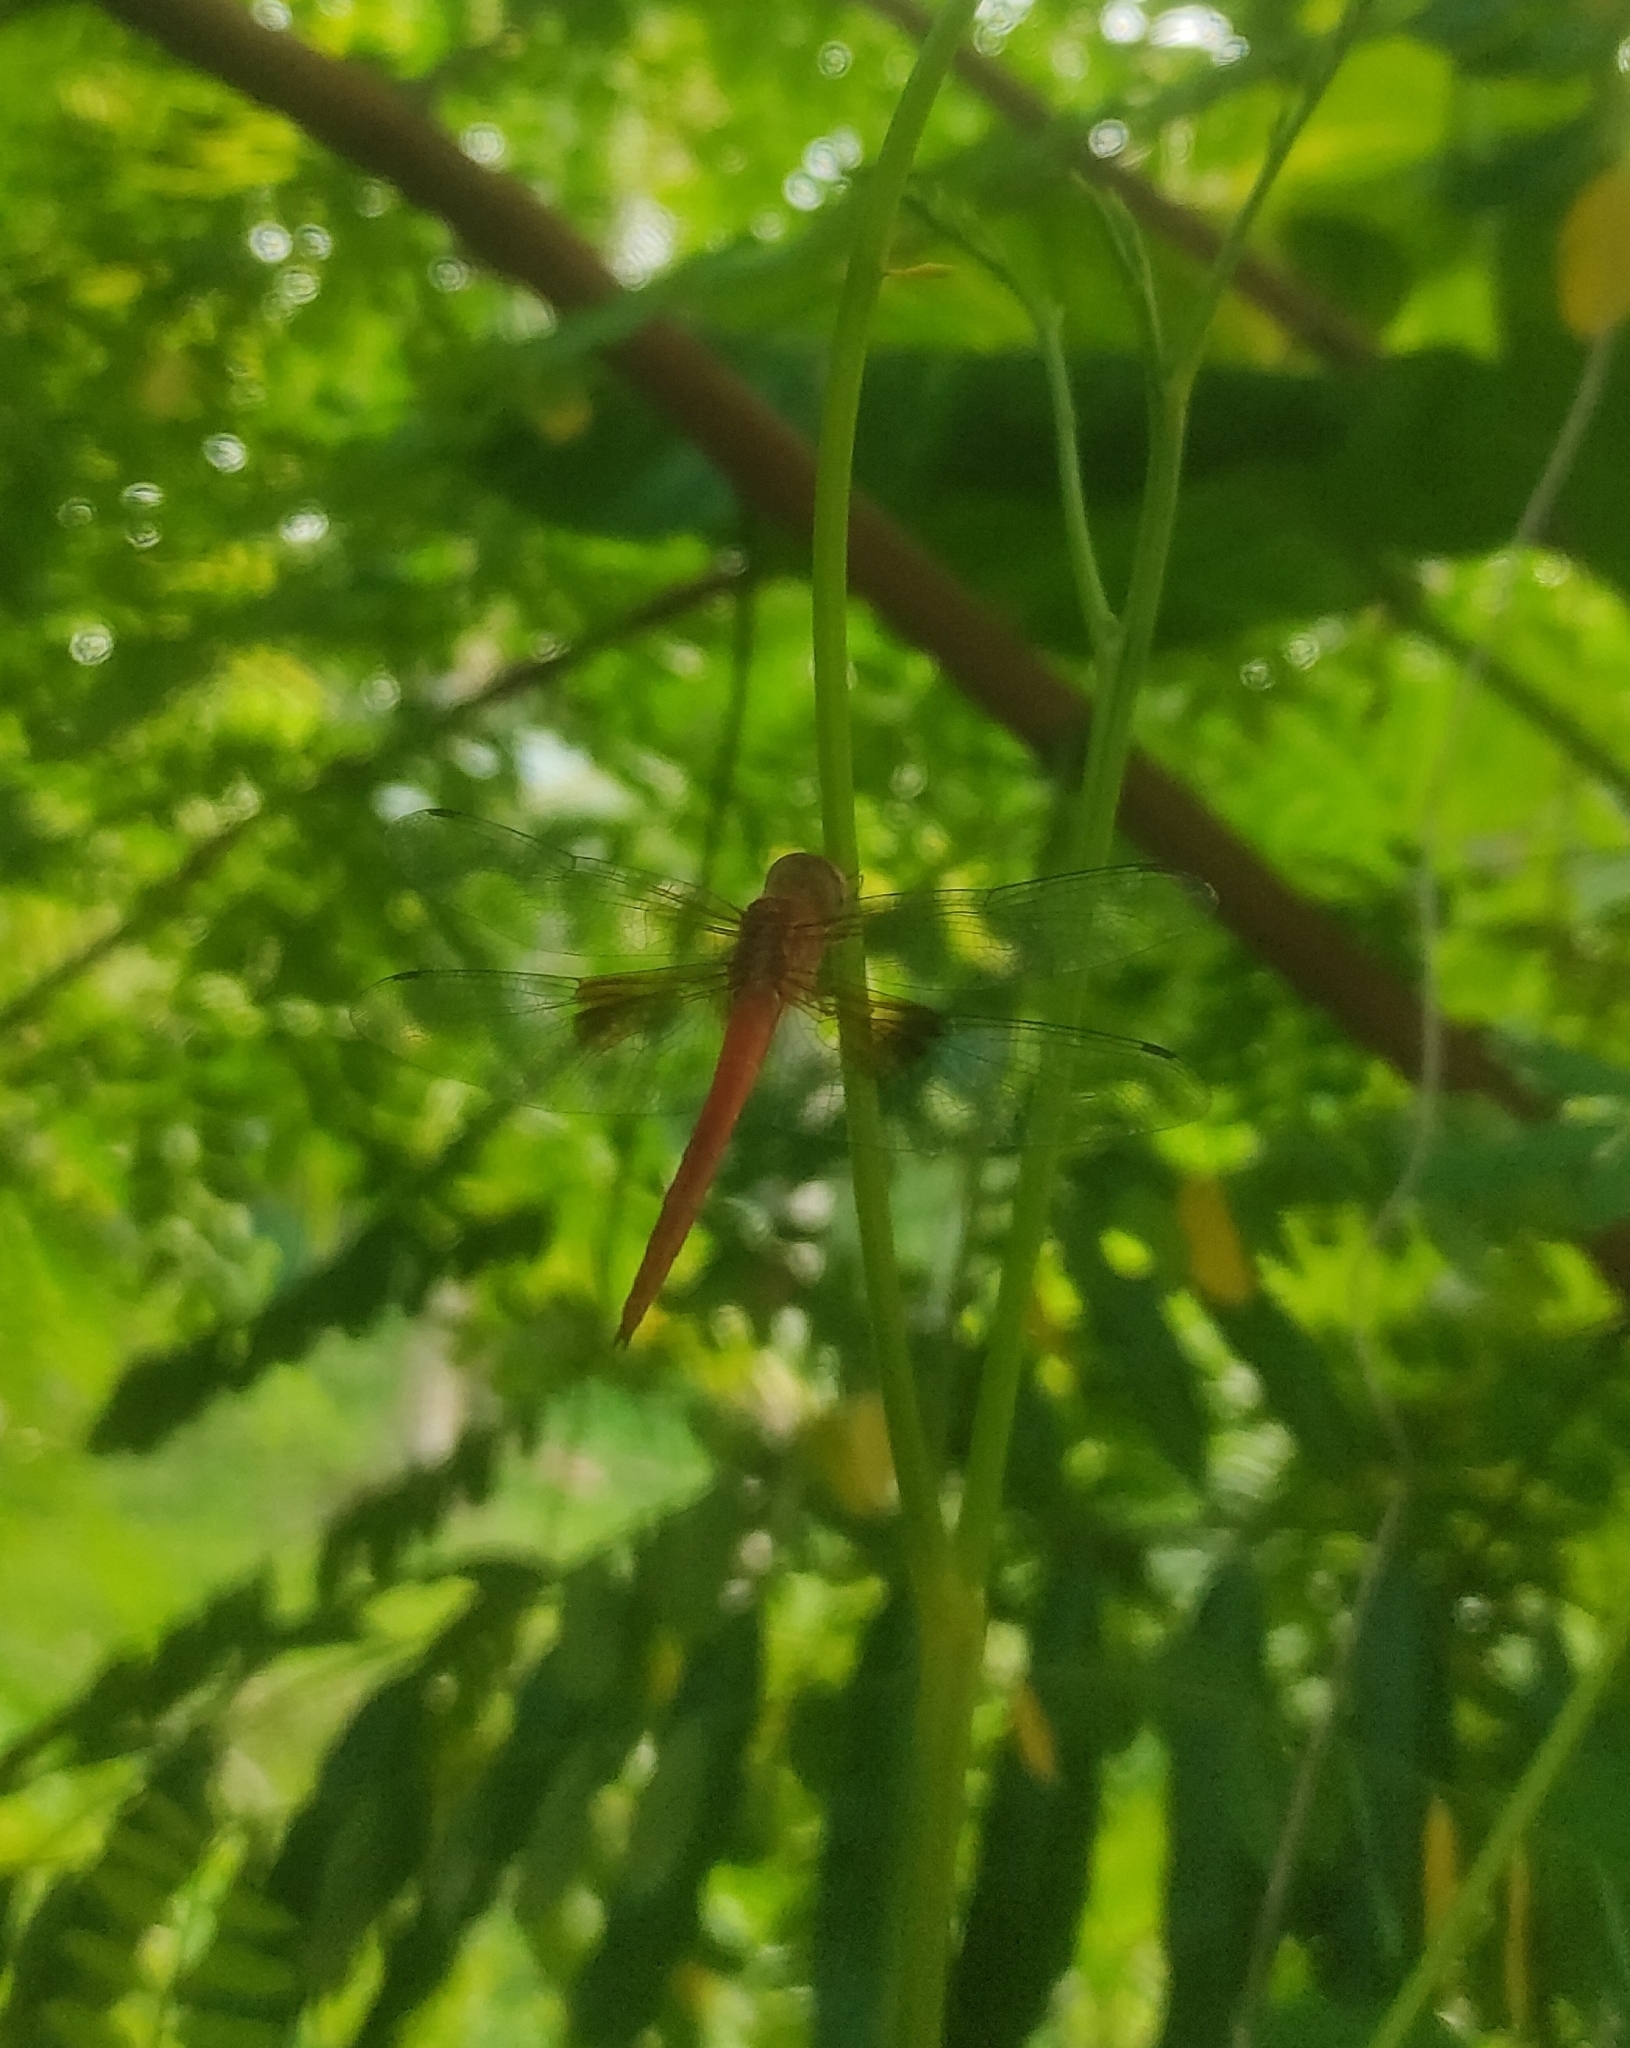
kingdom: Animalia
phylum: Arthropoda
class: Insecta
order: Odonata
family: Libellulidae
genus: Tholymis
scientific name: Tholymis tillarga
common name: Coral-tailed cloud wing
